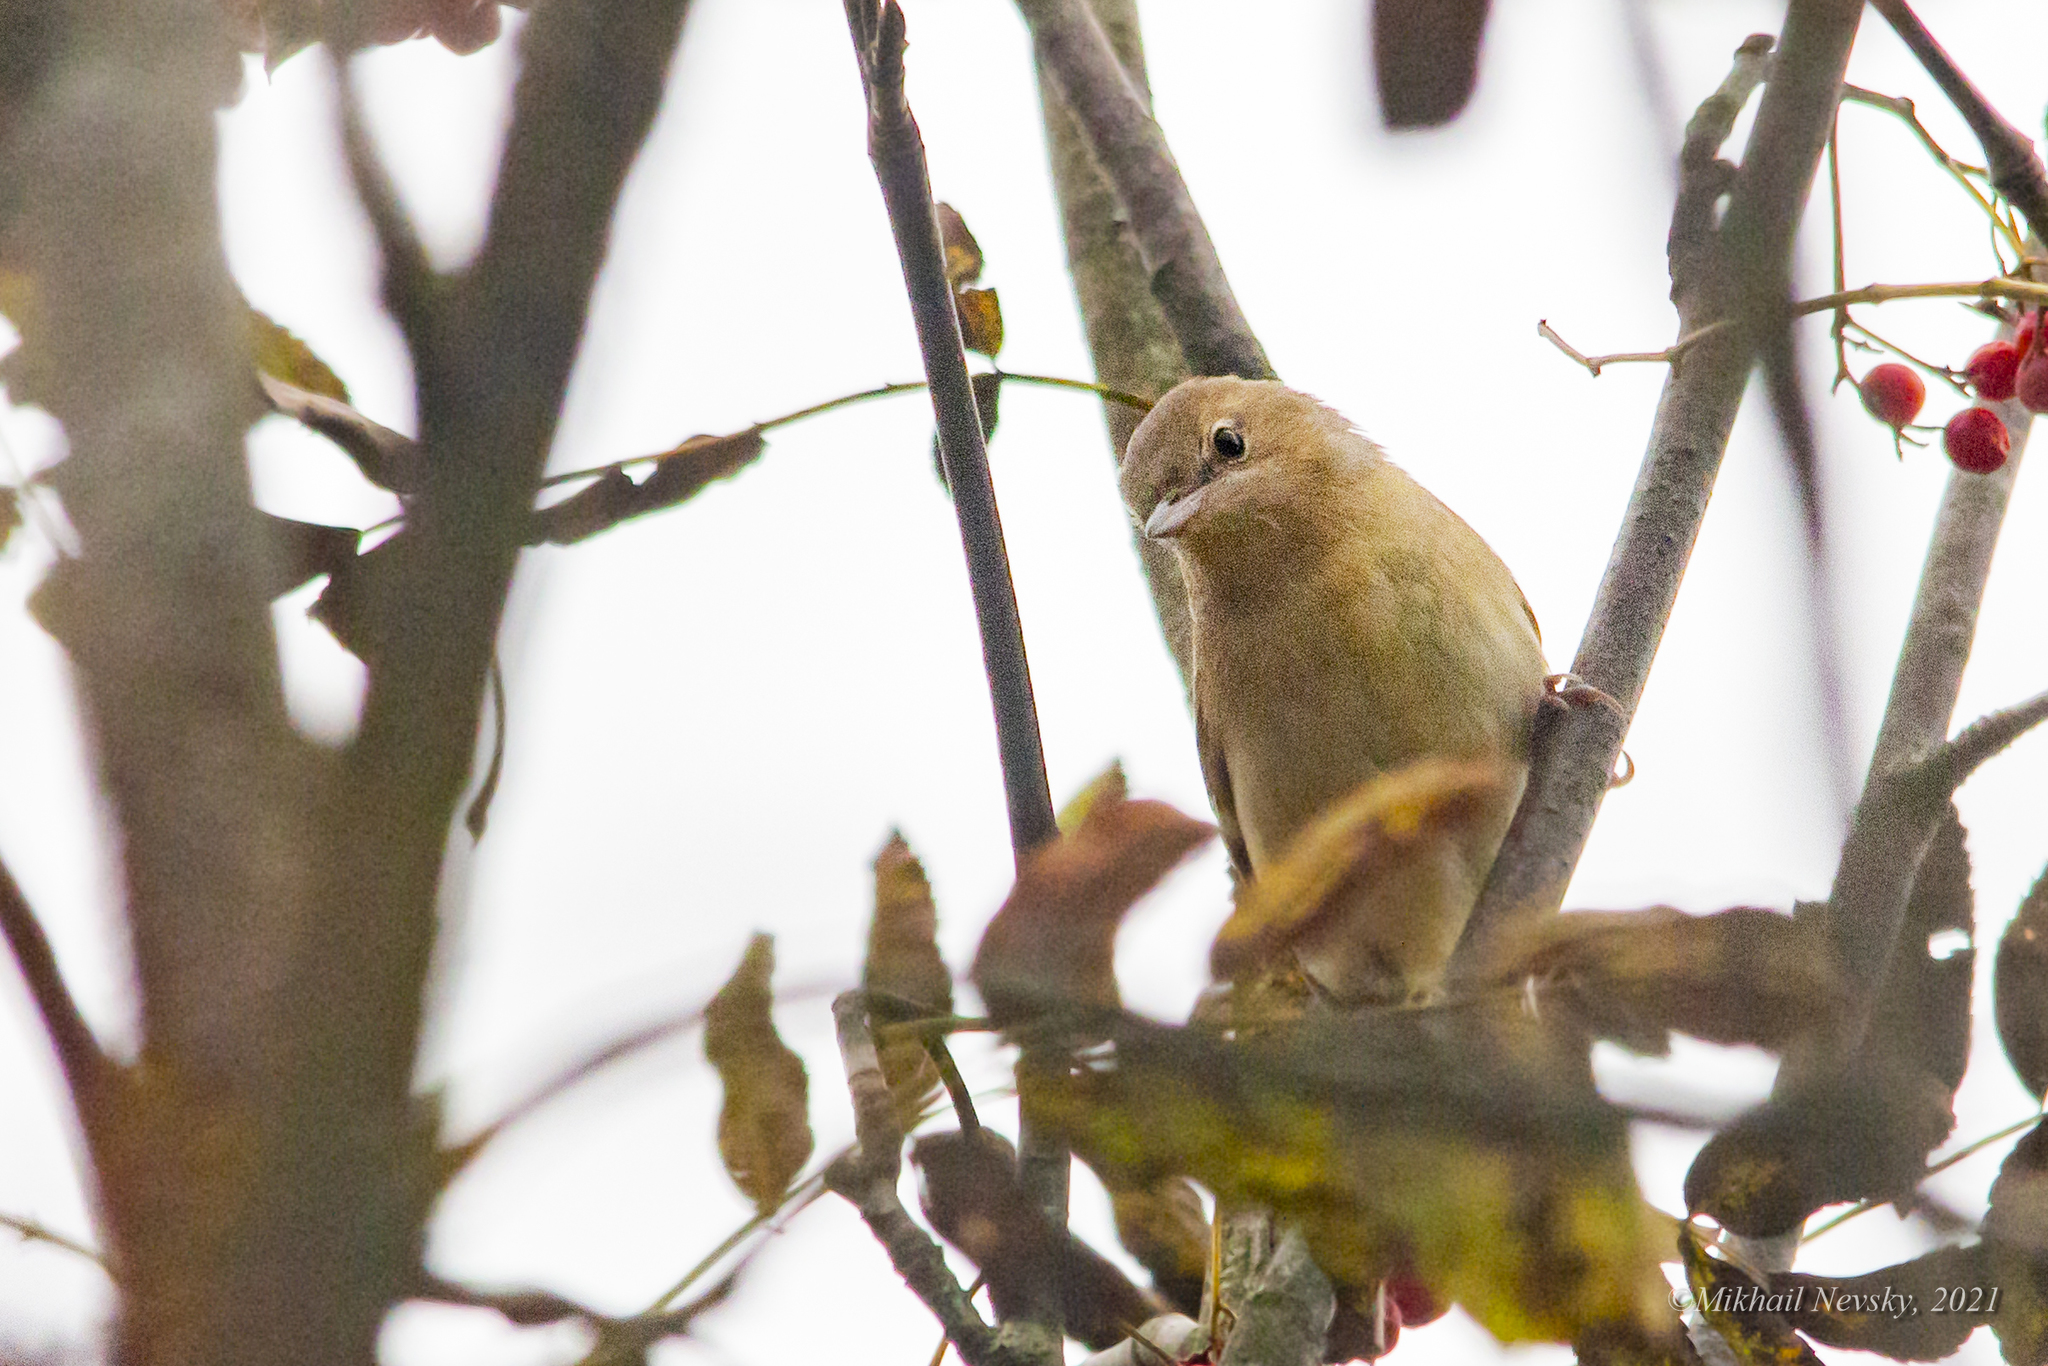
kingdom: Animalia
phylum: Chordata
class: Aves
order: Passeriformes
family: Sylviidae
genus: Sylvia
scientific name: Sylvia borin
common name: Garden warbler
